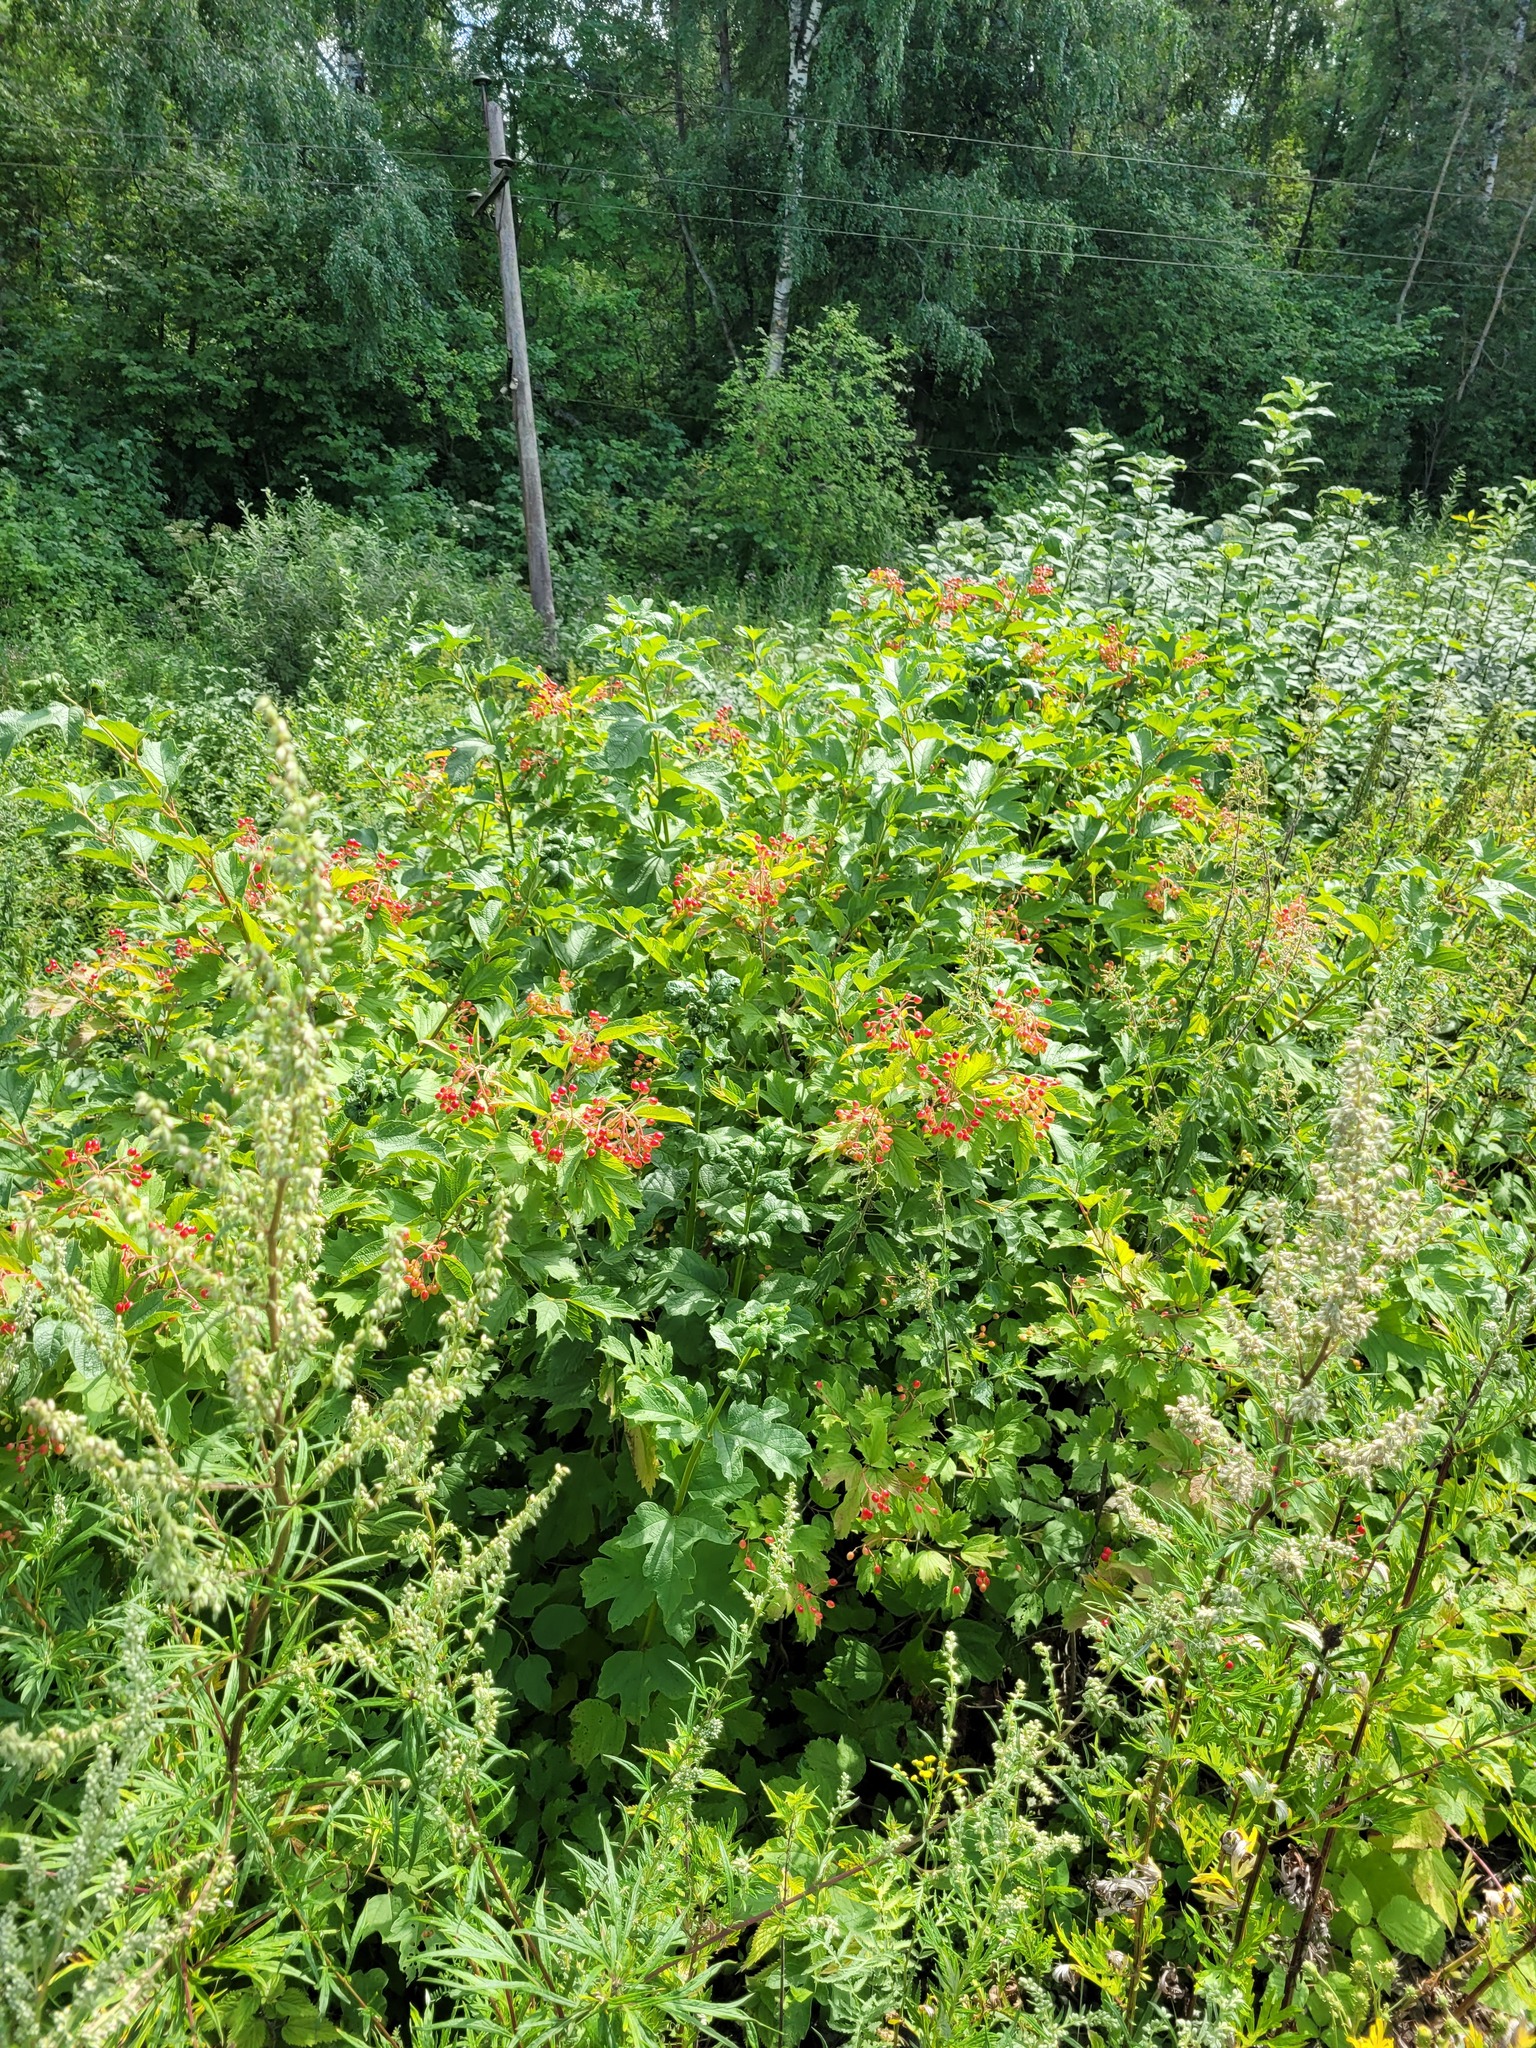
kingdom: Plantae
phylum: Tracheophyta
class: Magnoliopsida
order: Dipsacales
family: Viburnaceae
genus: Viburnum
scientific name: Viburnum opulus
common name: Guelder-rose
